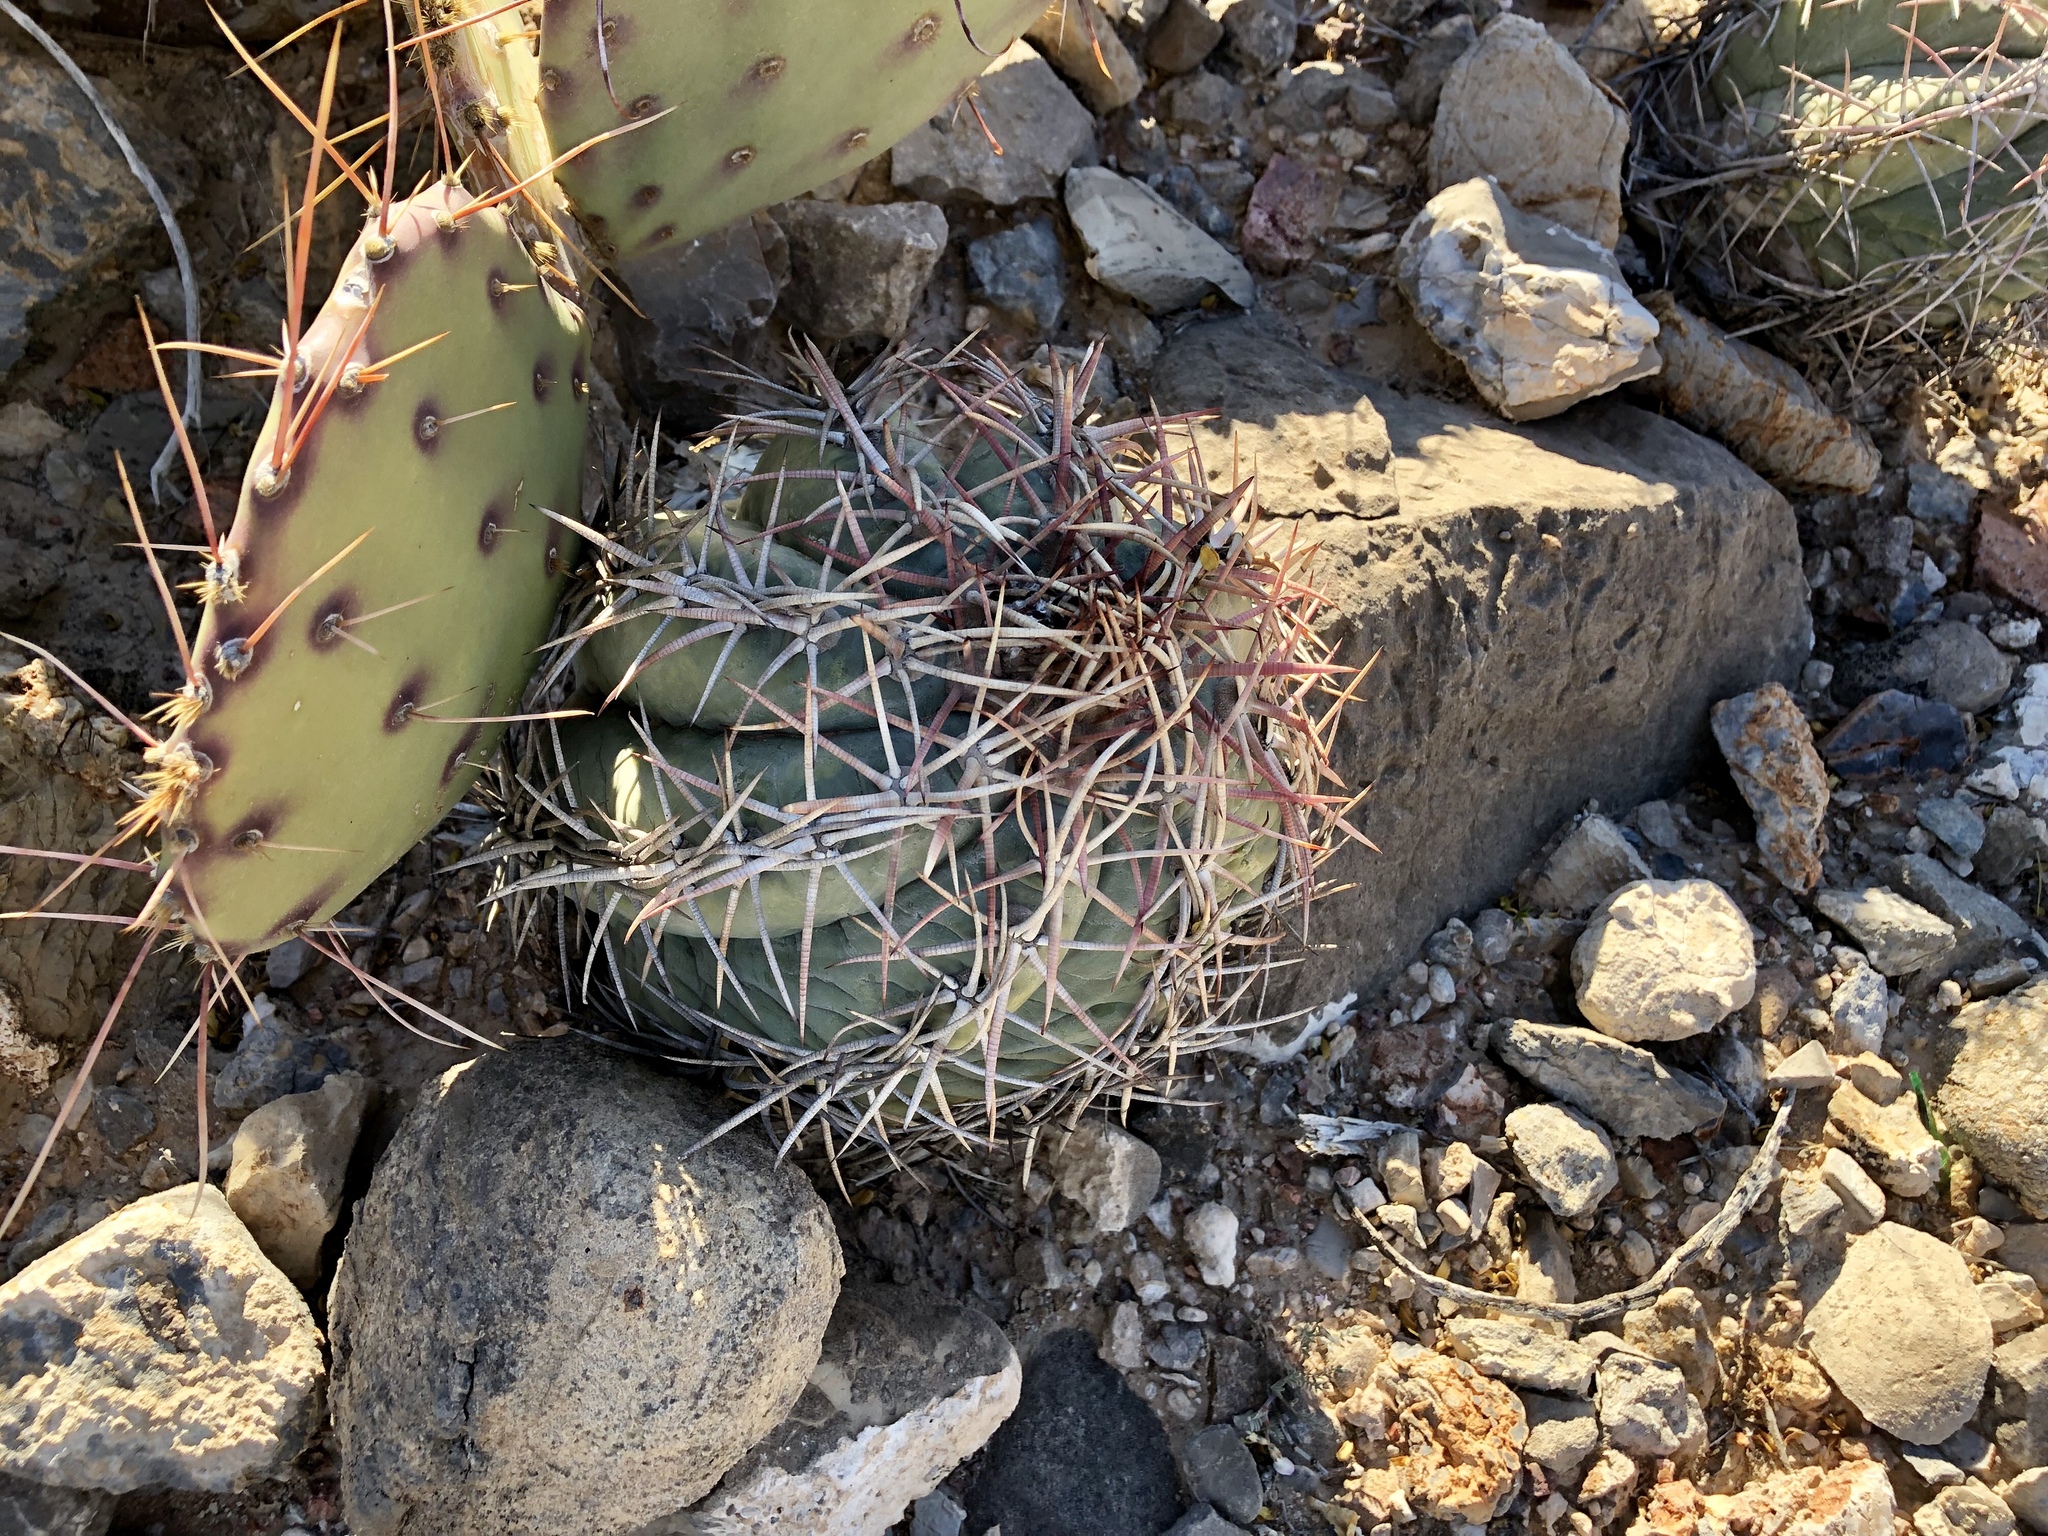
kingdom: Plantae
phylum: Tracheophyta
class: Magnoliopsida
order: Caryophyllales
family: Cactaceae
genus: Echinocactus
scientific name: Echinocactus horizonthalonius
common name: Devilshead
